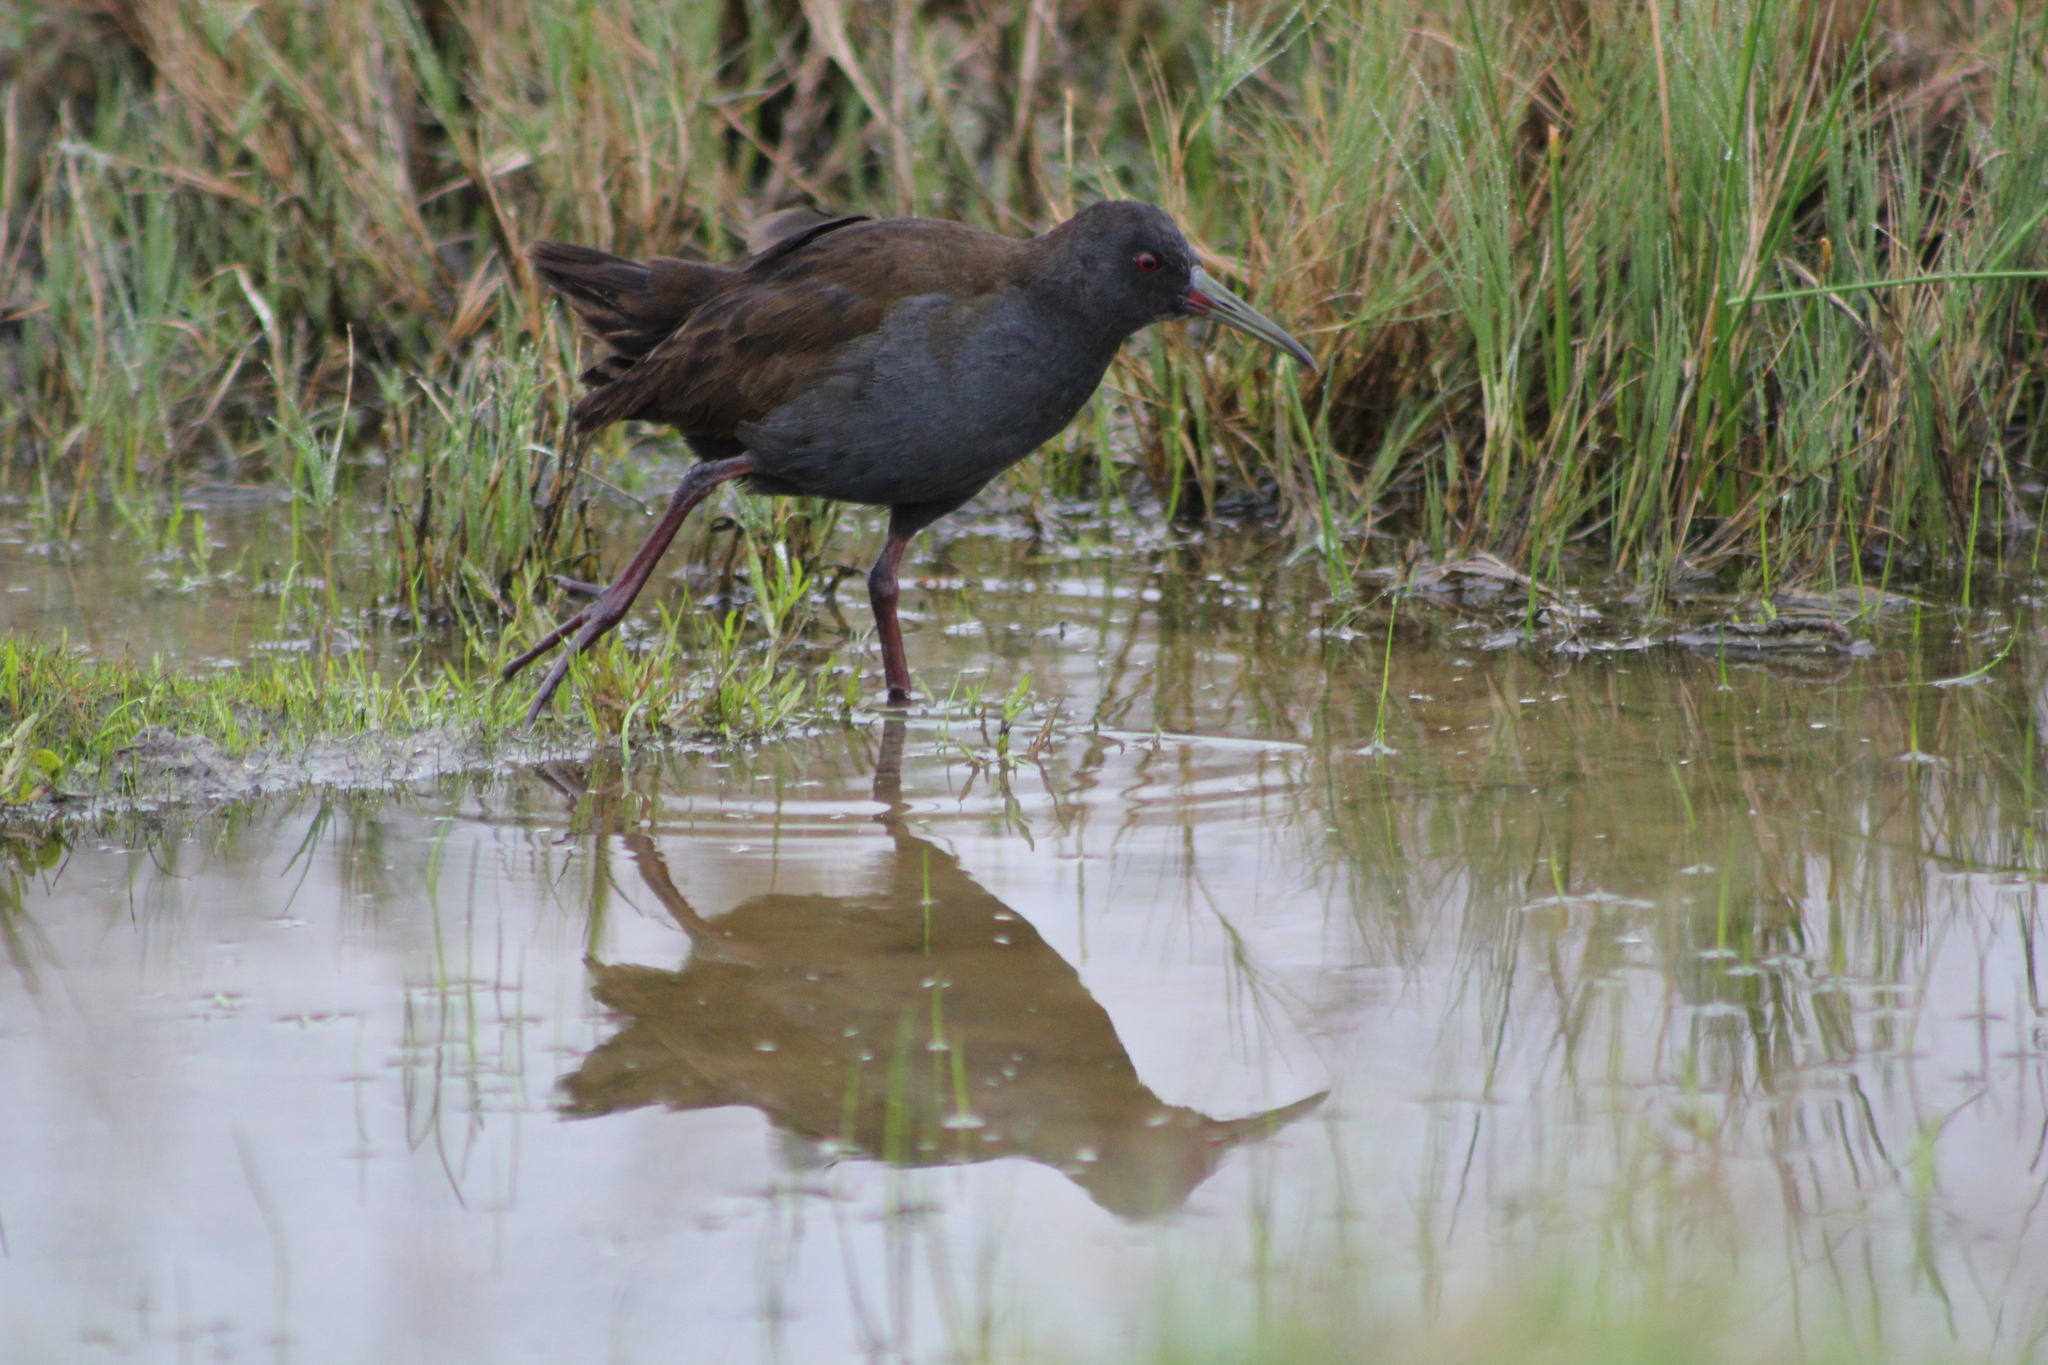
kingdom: Animalia
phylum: Chordata
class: Aves
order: Gruiformes
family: Rallidae
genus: Pardirallus
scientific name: Pardirallus sanguinolentus
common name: Plumbeous rail
